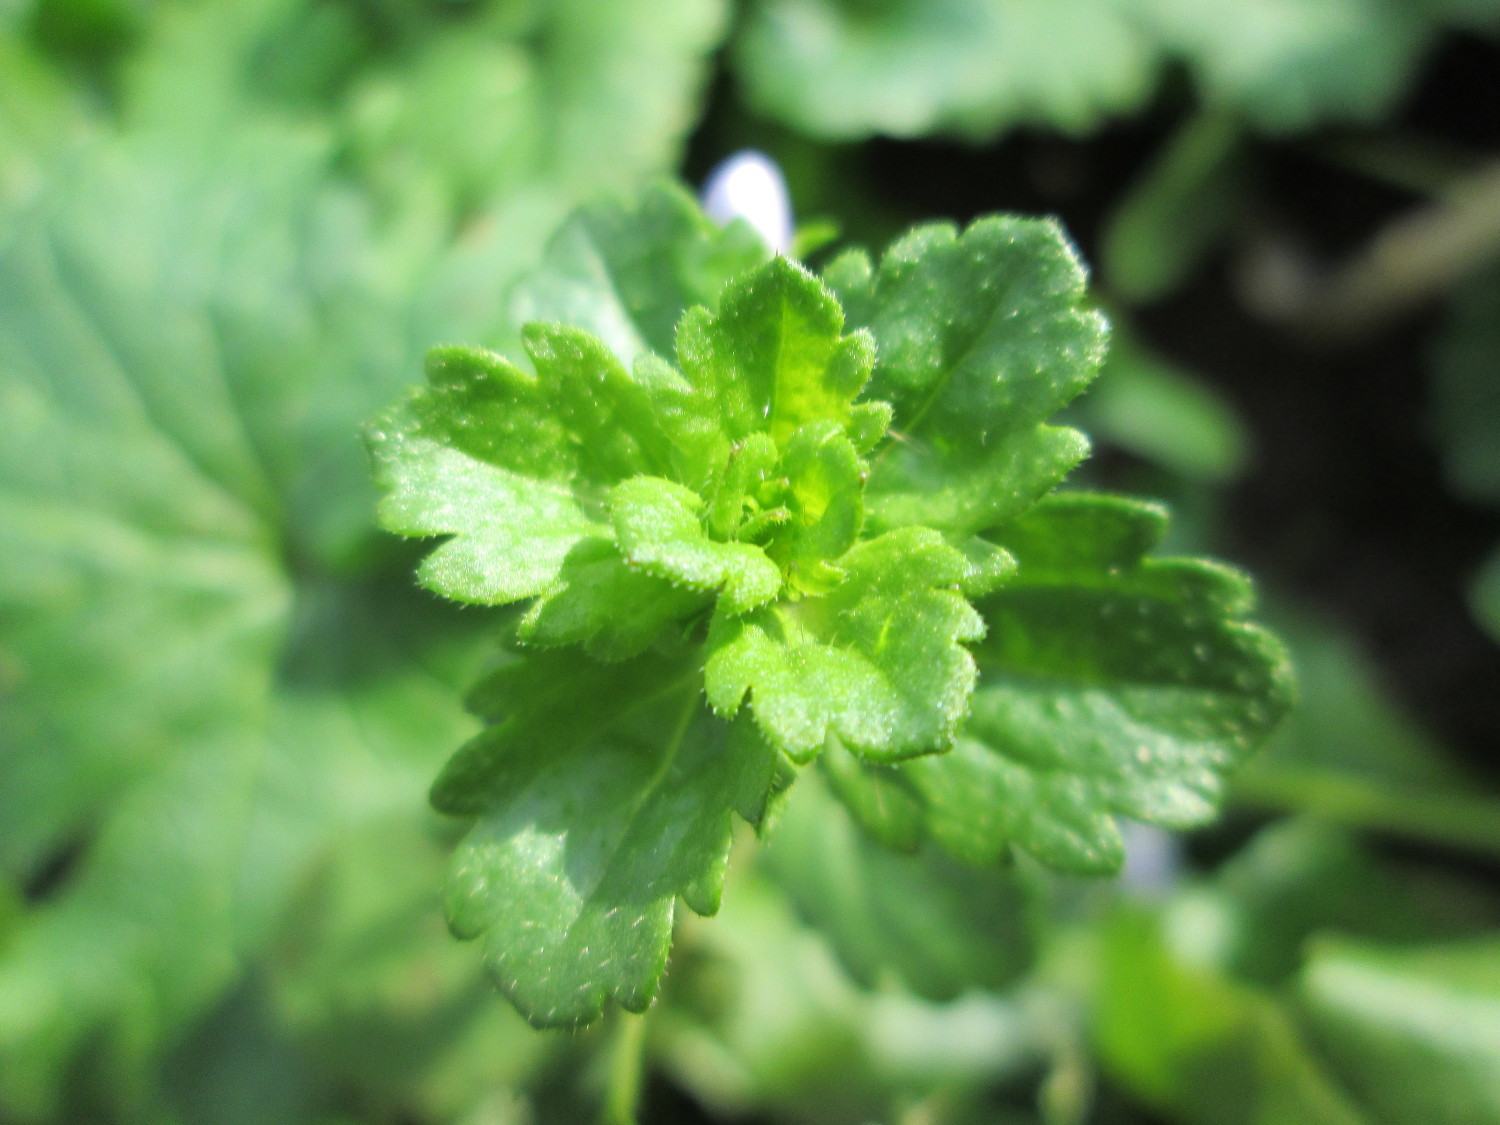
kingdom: Plantae
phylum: Tracheophyta
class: Magnoliopsida
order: Lamiales
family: Plantaginaceae
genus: Veronica
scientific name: Veronica persica
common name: Common field-speedwell
